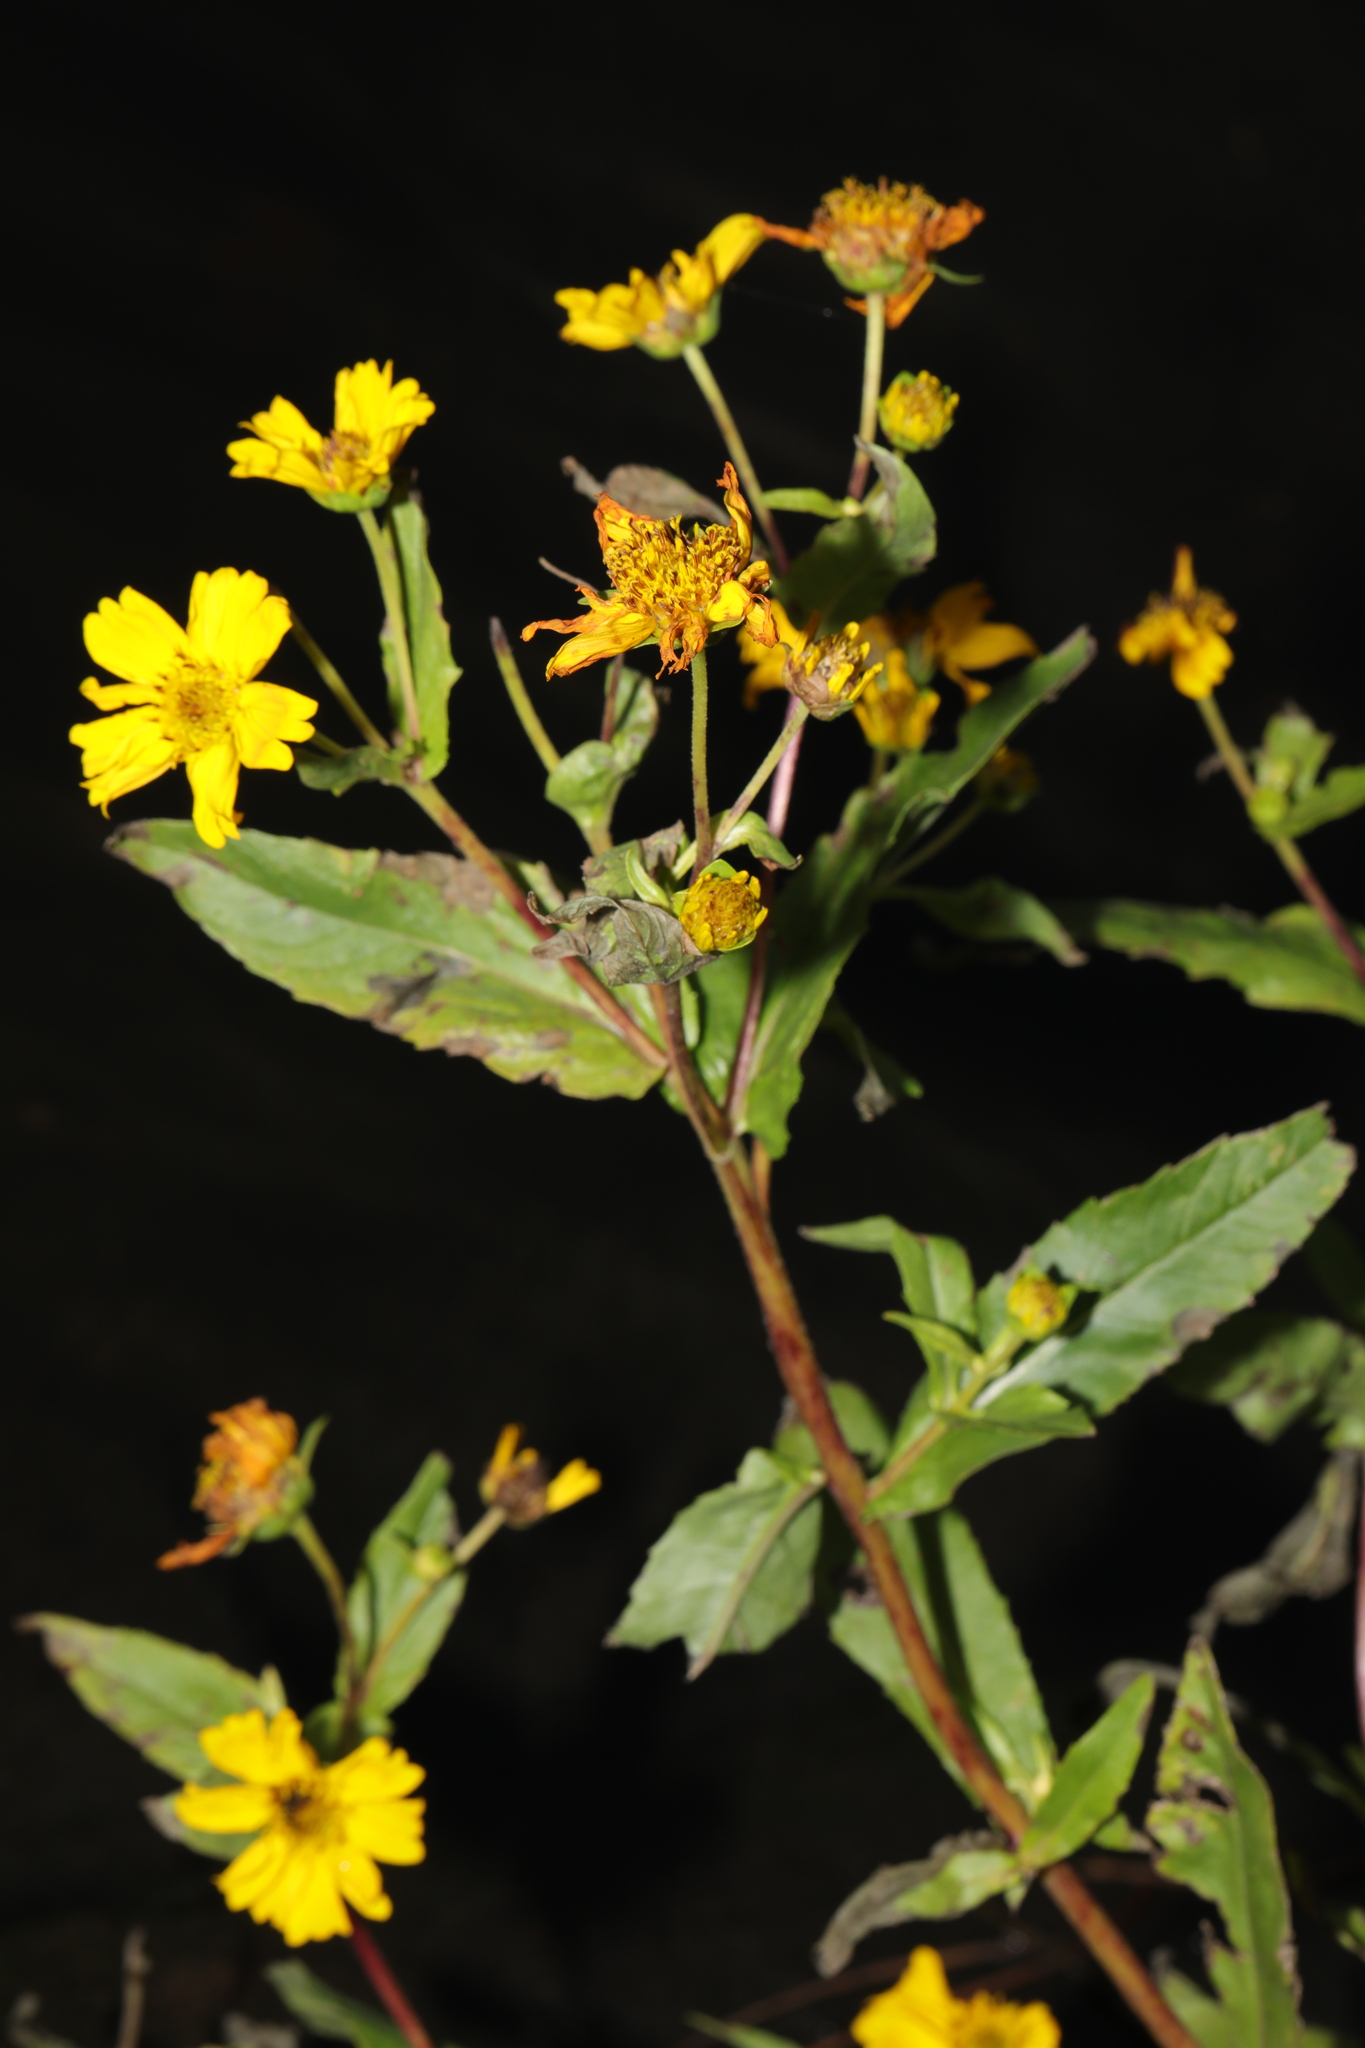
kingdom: Plantae
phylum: Tracheophyta
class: Magnoliopsida
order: Asterales
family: Asteraceae
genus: Guizotia
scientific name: Guizotia abyssinica
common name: Niger
